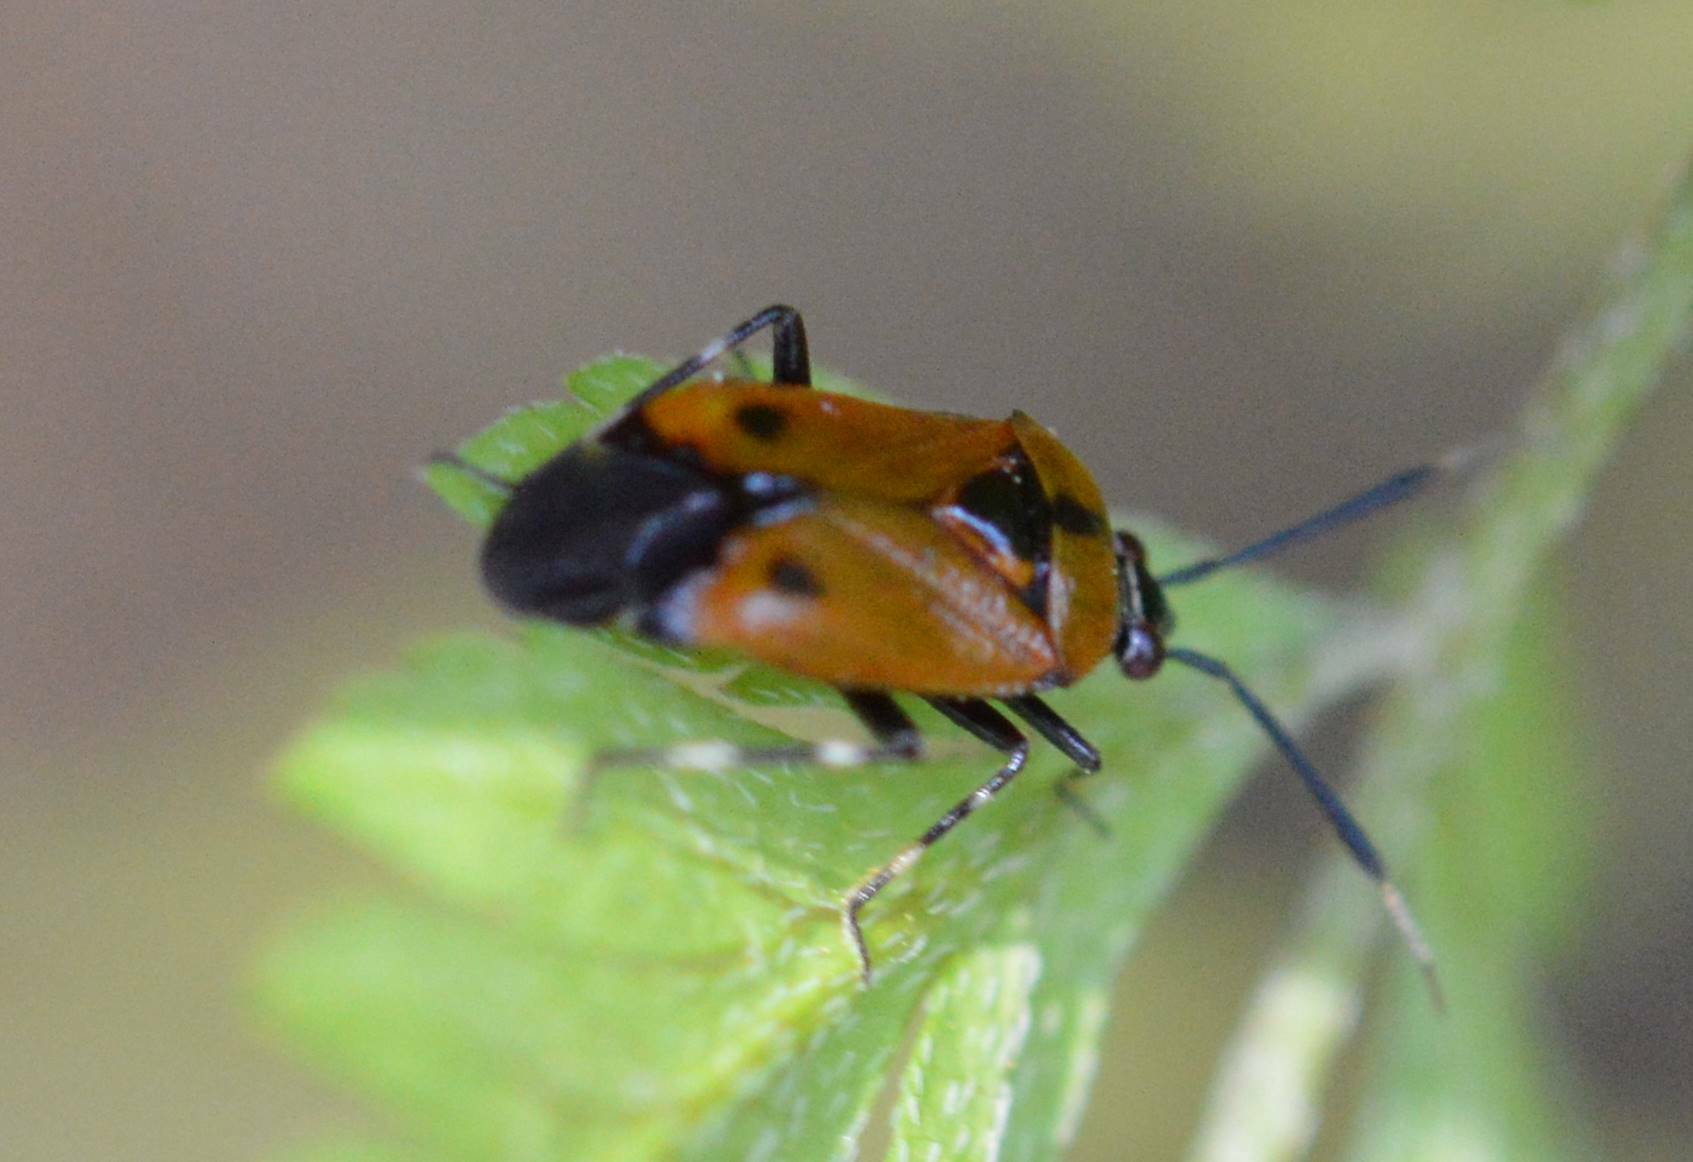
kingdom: Animalia
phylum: Arthropoda
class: Insecta
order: Hemiptera
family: Miridae
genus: Deraeocoris
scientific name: Deraeocoris punctum
